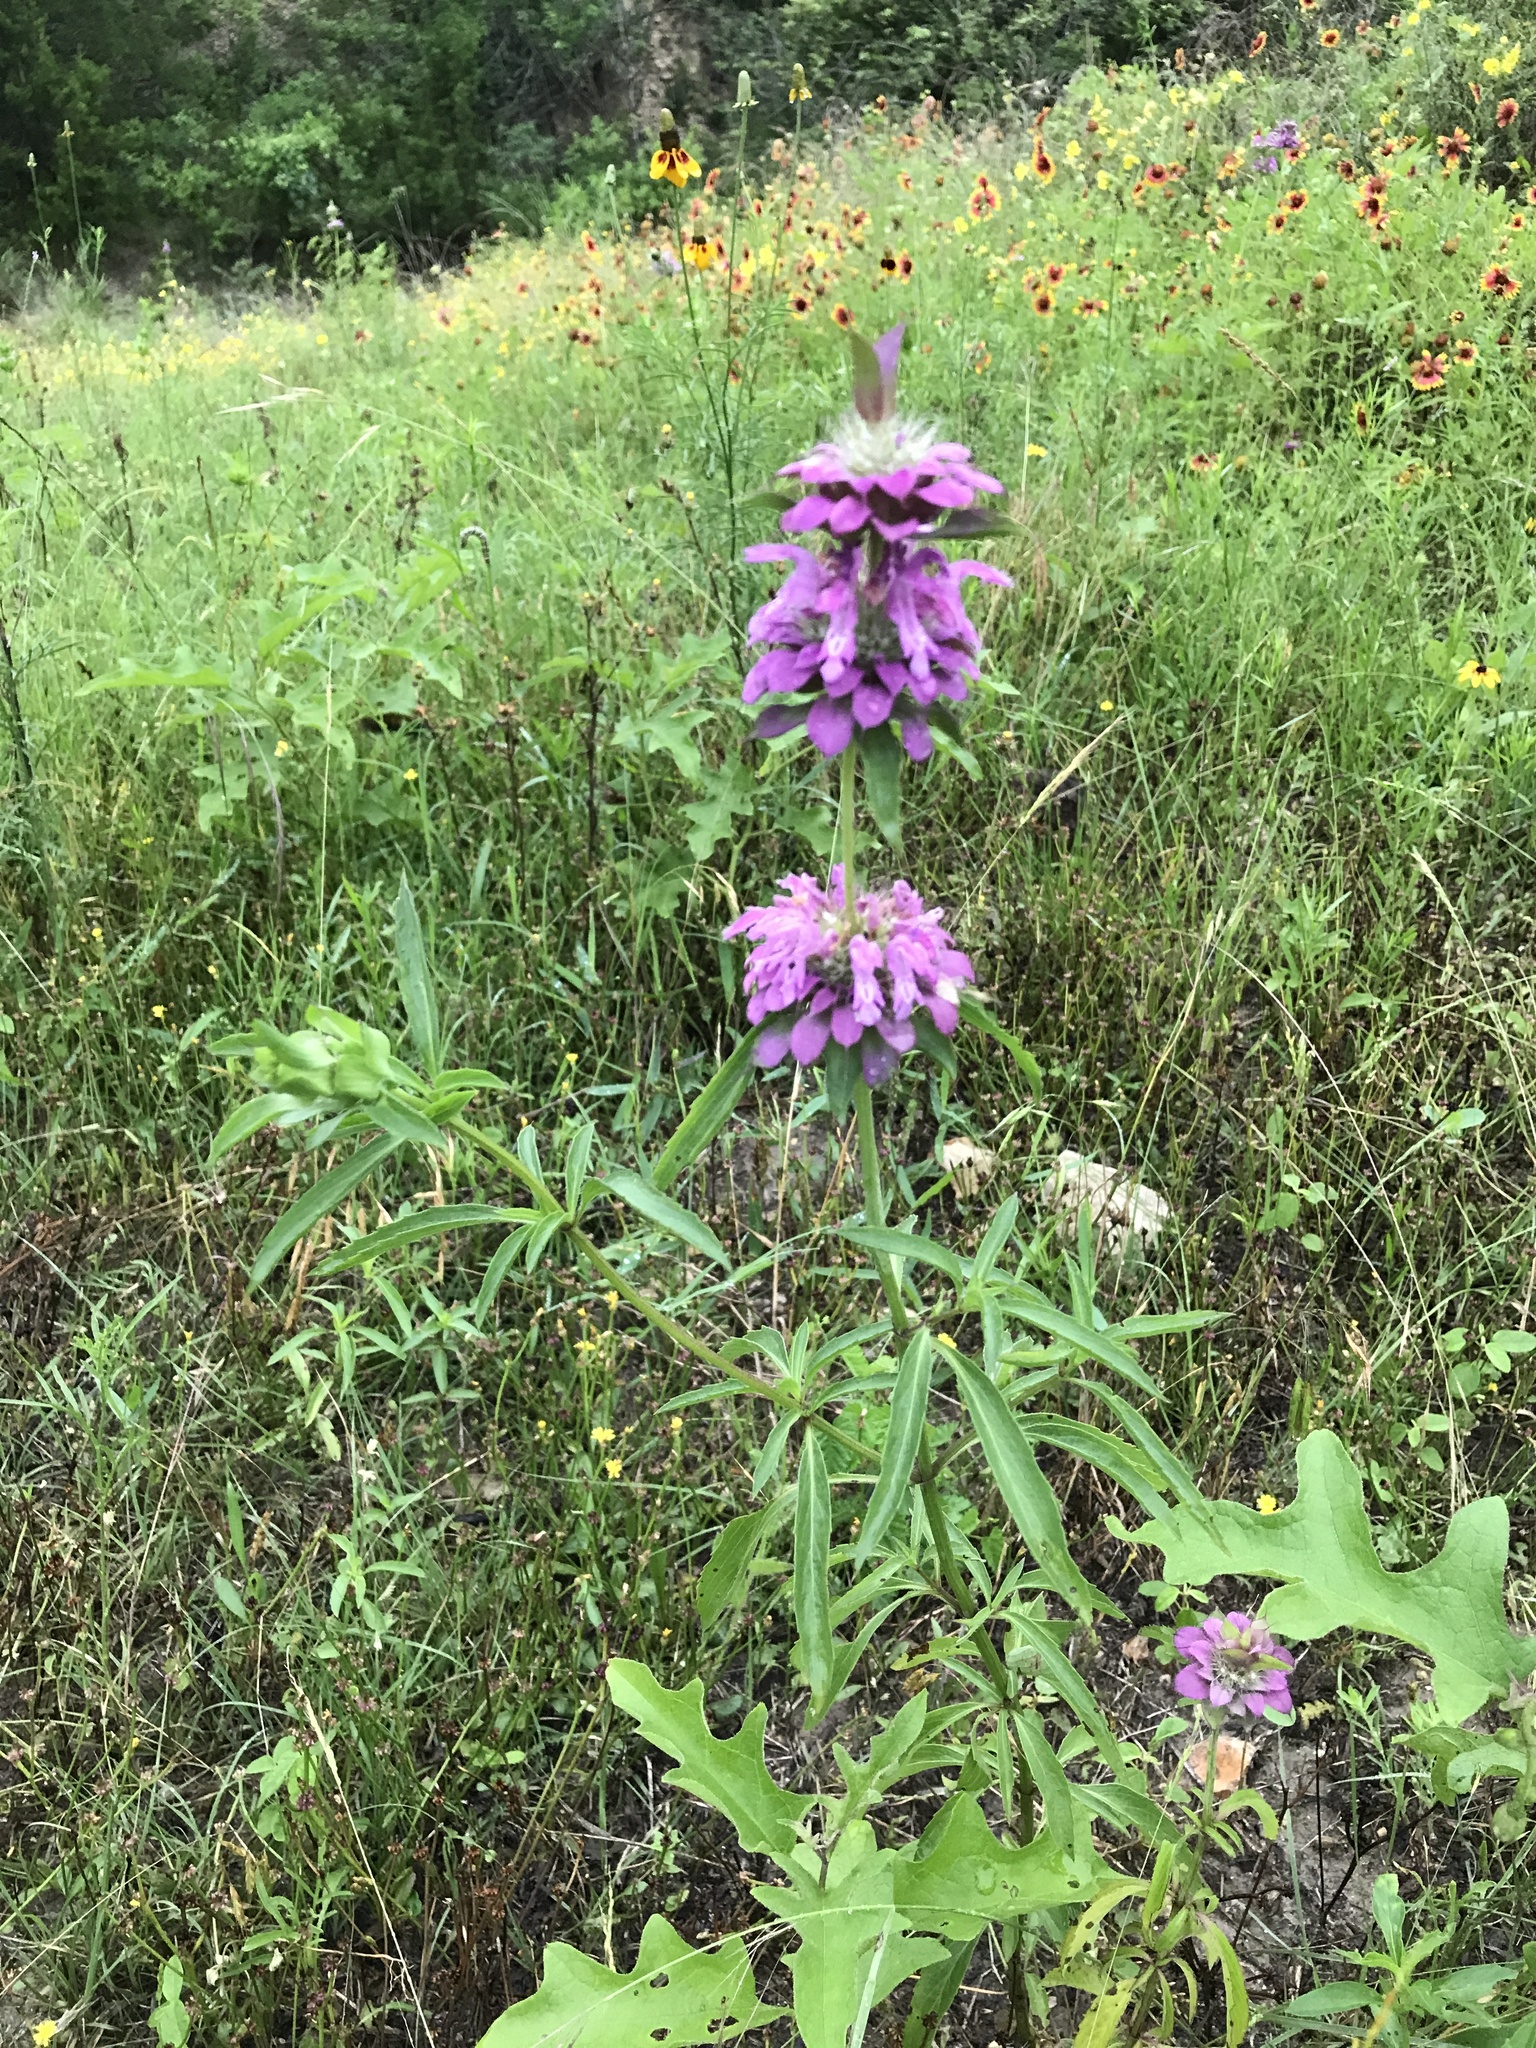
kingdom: Plantae
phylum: Tracheophyta
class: Magnoliopsida
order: Lamiales
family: Lamiaceae
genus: Monarda
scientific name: Monarda citriodora
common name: Lemon beebalm
